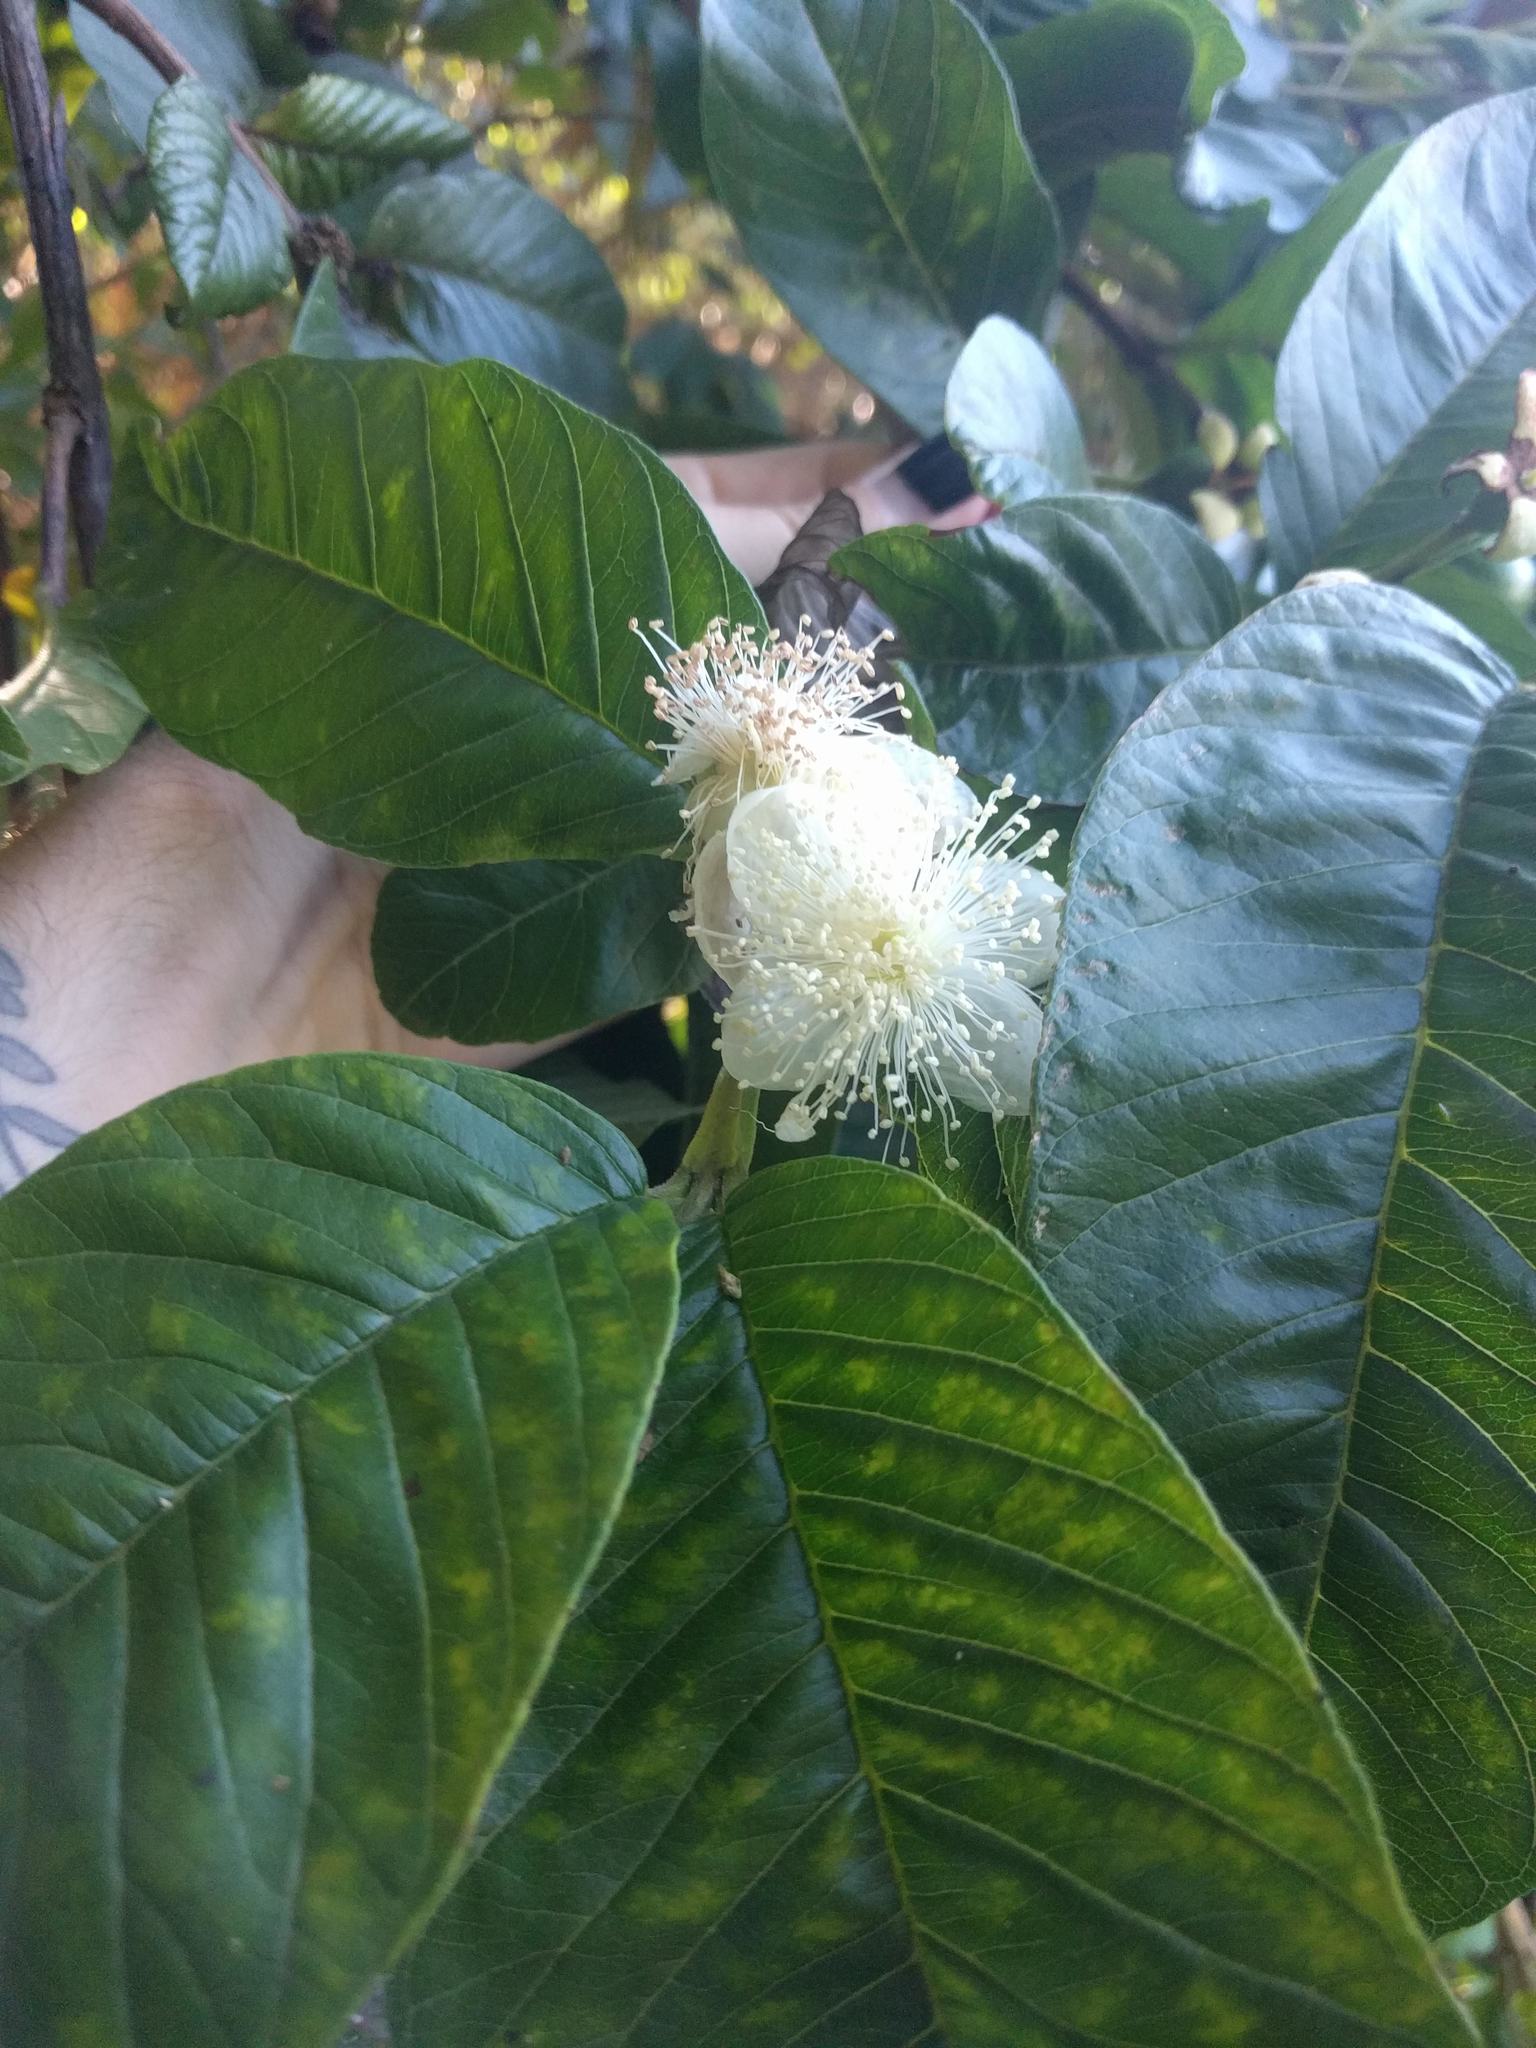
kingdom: Plantae
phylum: Tracheophyta
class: Magnoliopsida
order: Myrtales
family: Myrtaceae
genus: Psidium
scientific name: Psidium guajava
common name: Guava
